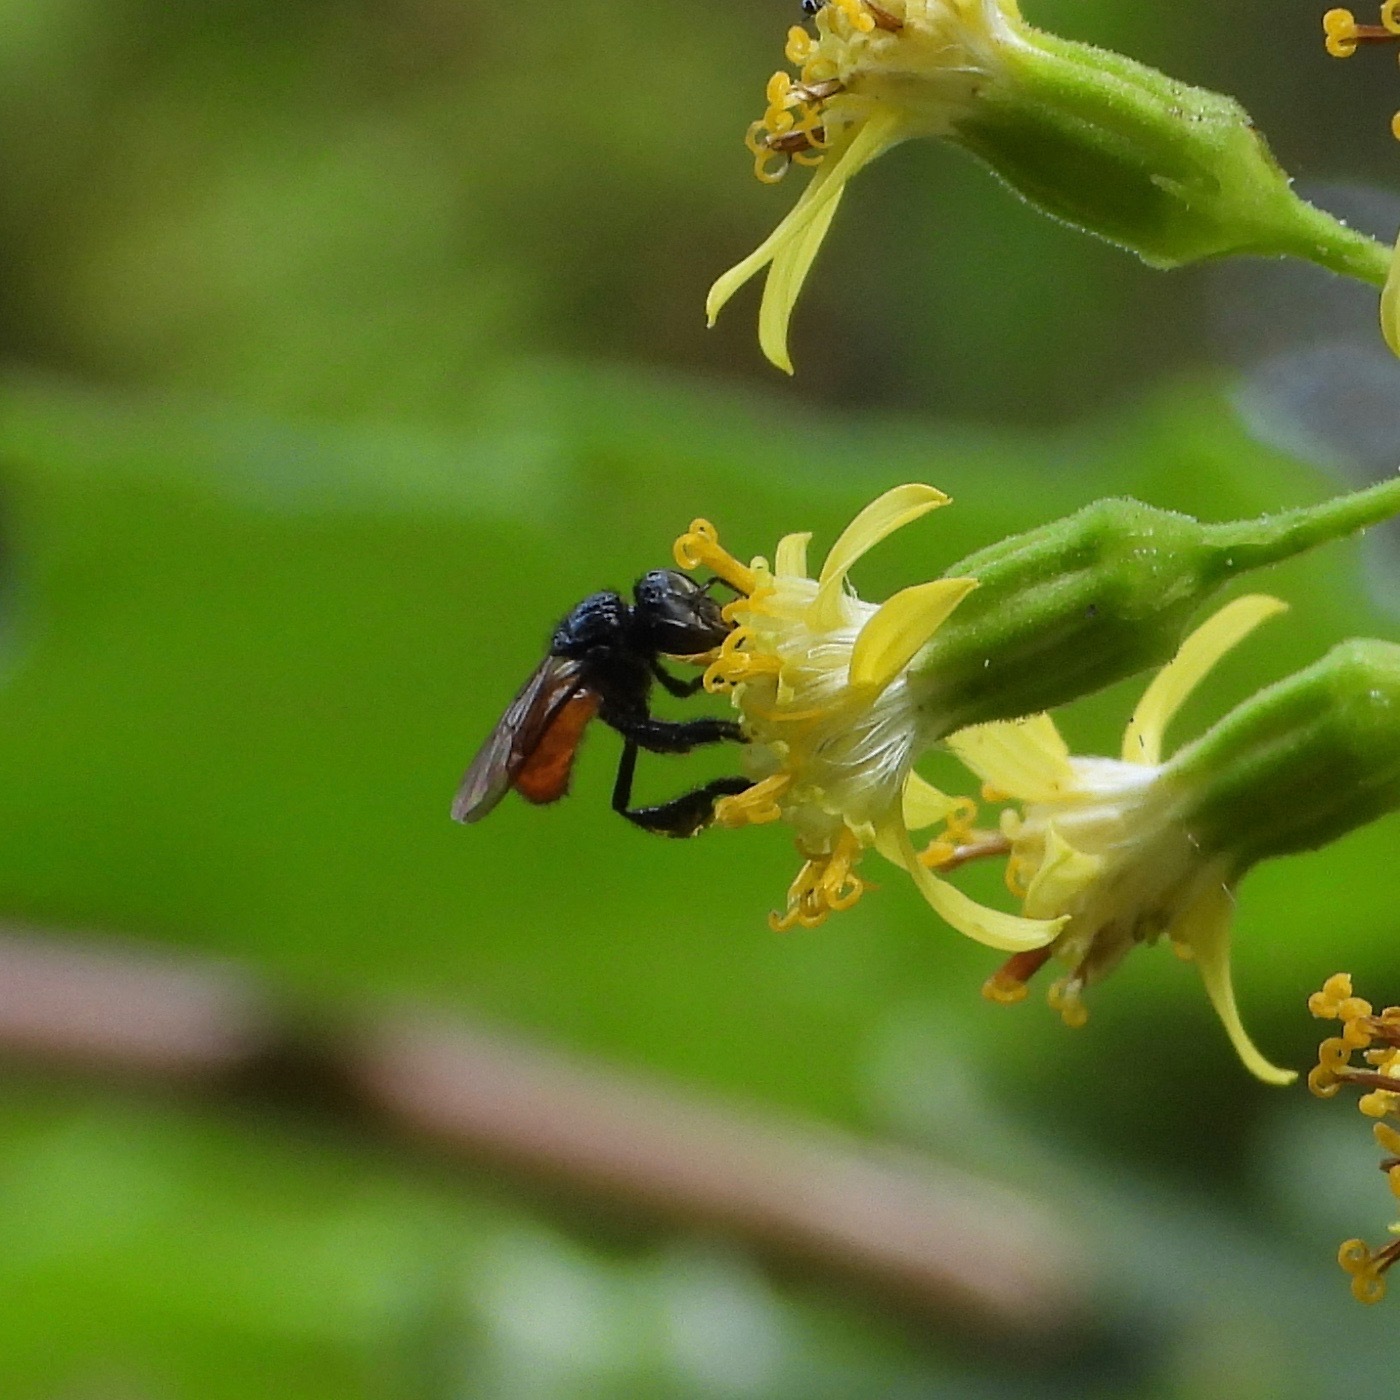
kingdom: Animalia
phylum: Arthropoda
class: Insecta
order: Hymenoptera
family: Apidae
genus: Trigona
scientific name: Trigona fulviventris
